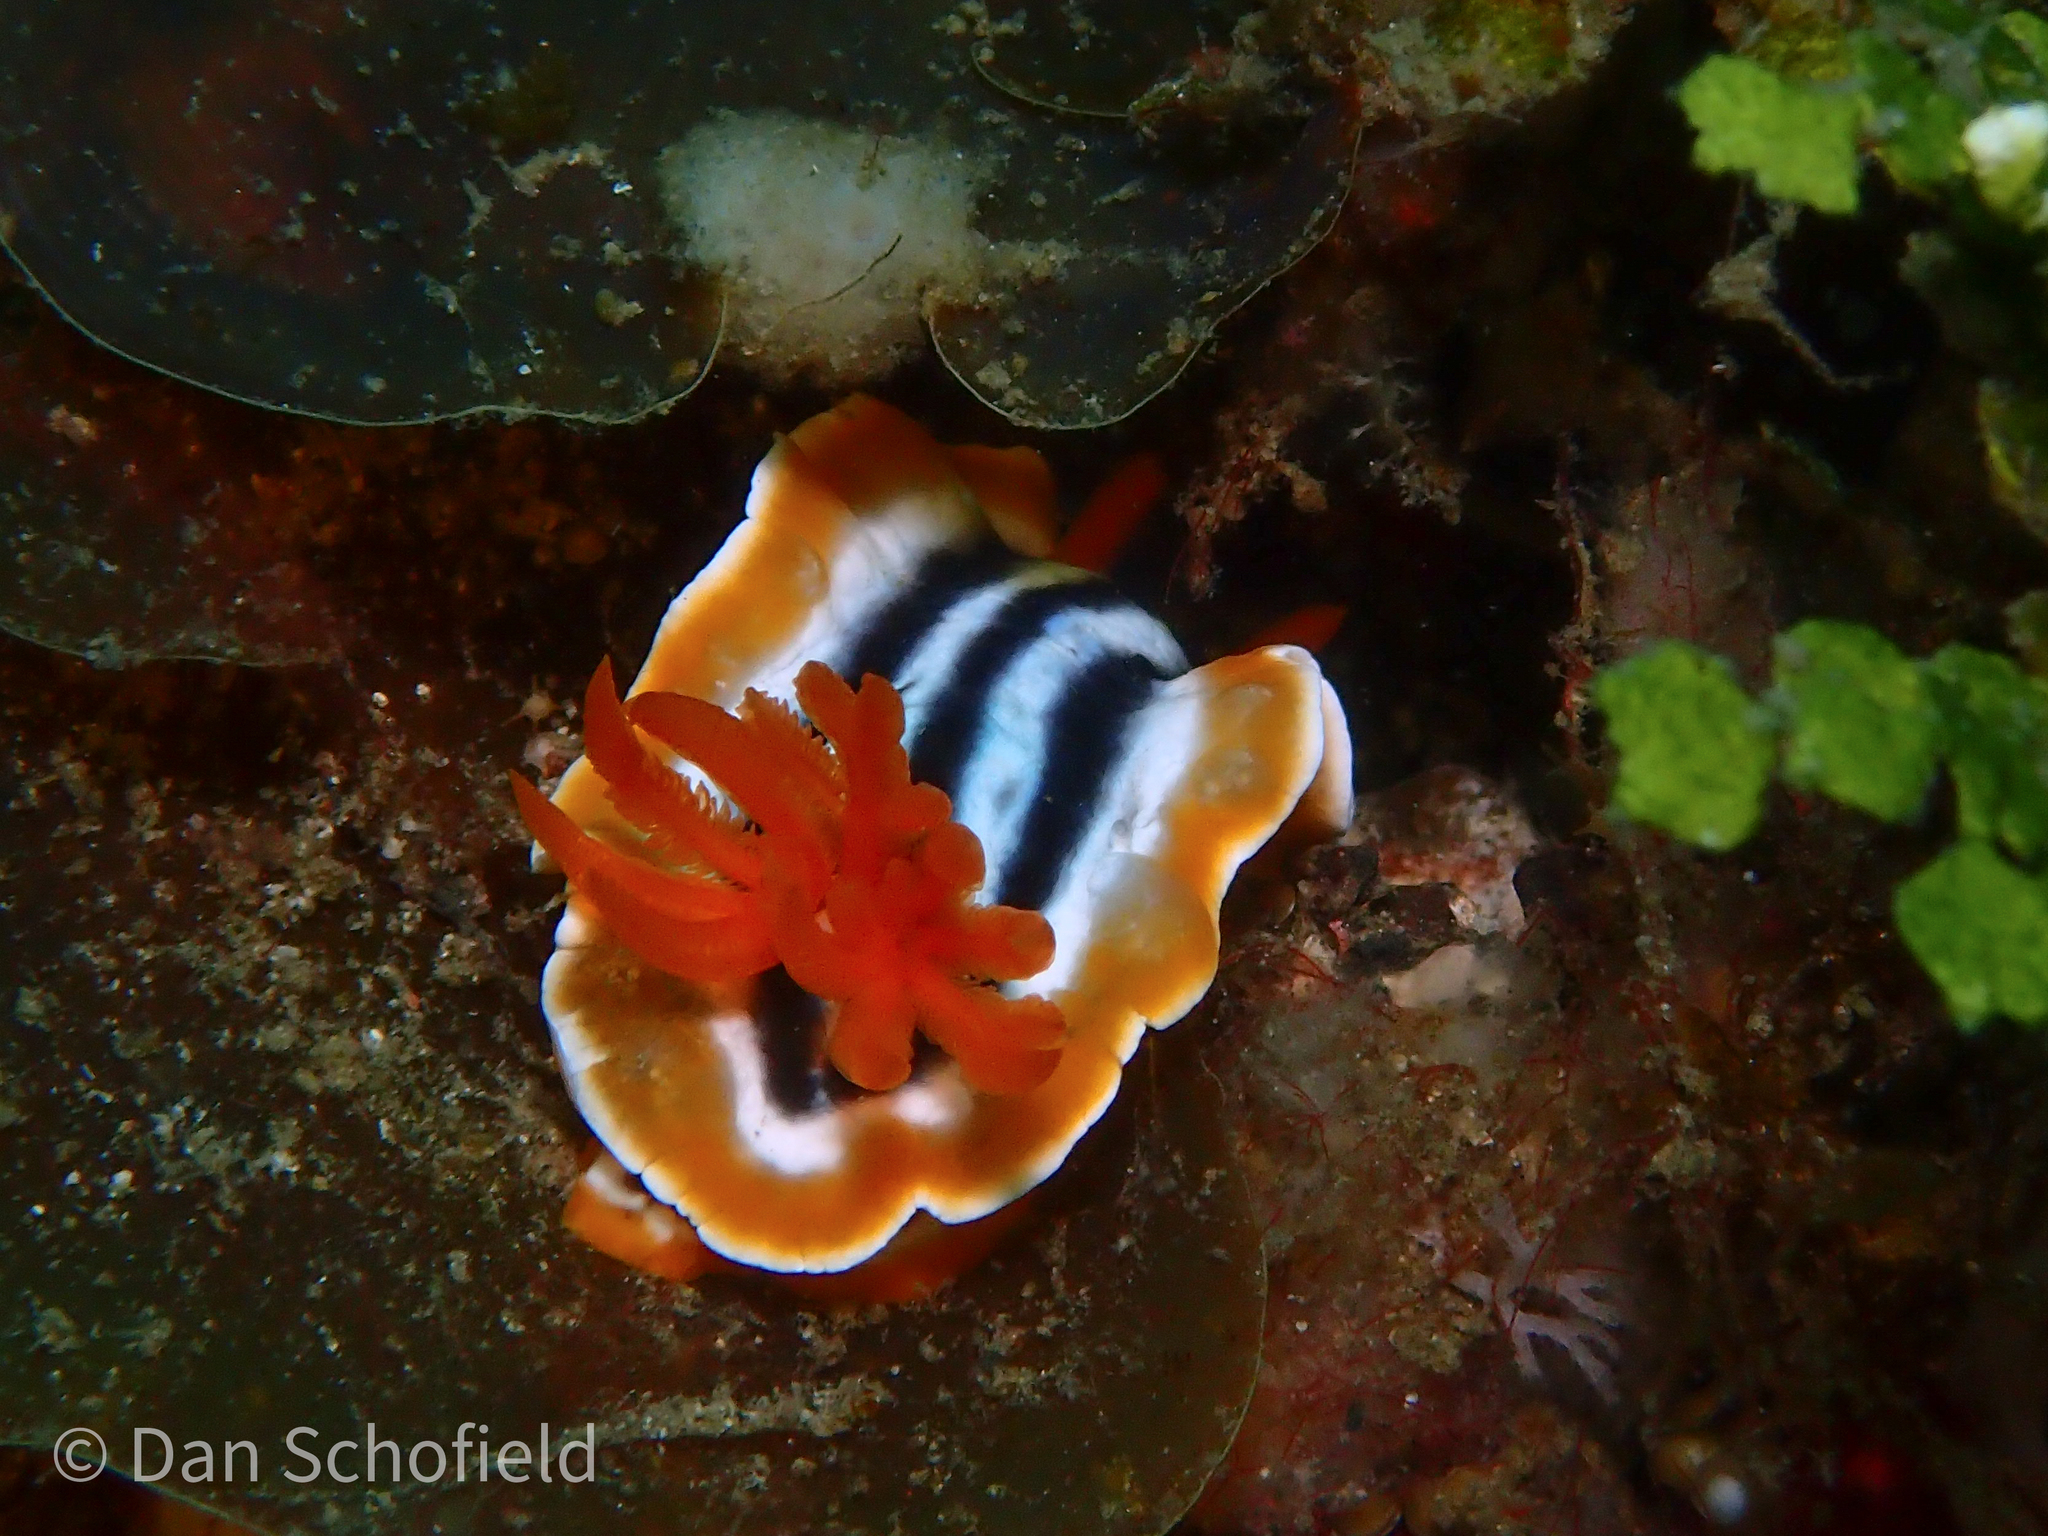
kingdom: Animalia
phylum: Mollusca
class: Gastropoda
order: Nudibranchia
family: Chromodorididae
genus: Chromodoris
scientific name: Chromodoris magnifica
